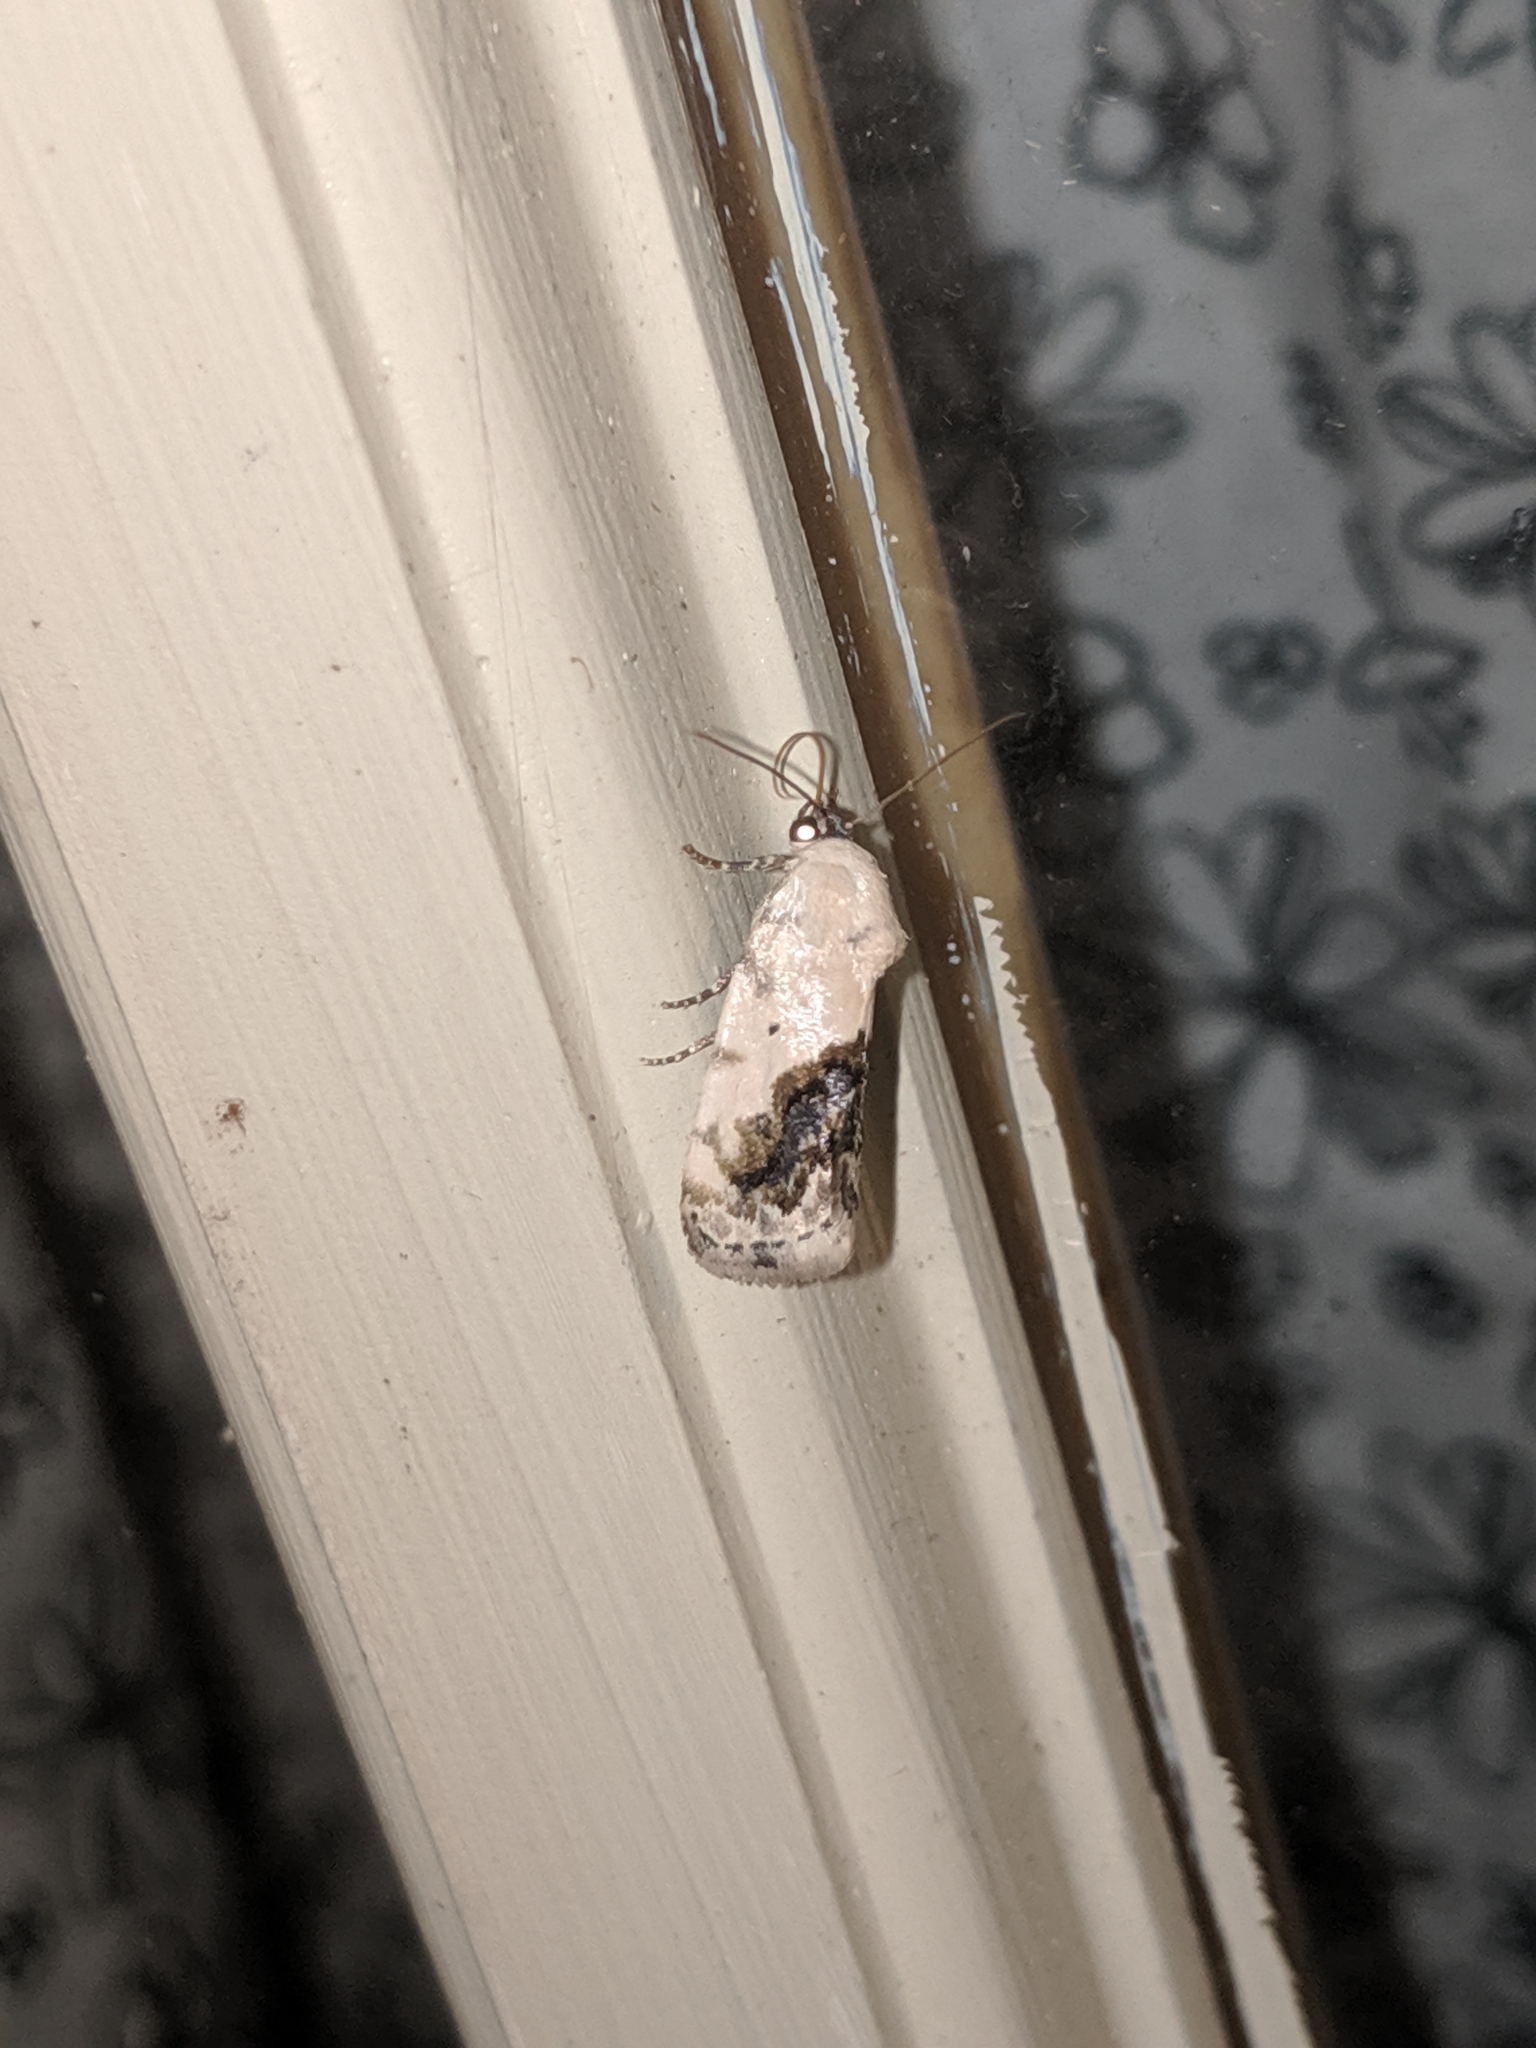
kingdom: Animalia
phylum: Arthropoda
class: Insecta
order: Lepidoptera
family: Noctuidae
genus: Acontia
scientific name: Acontia erastrioides
